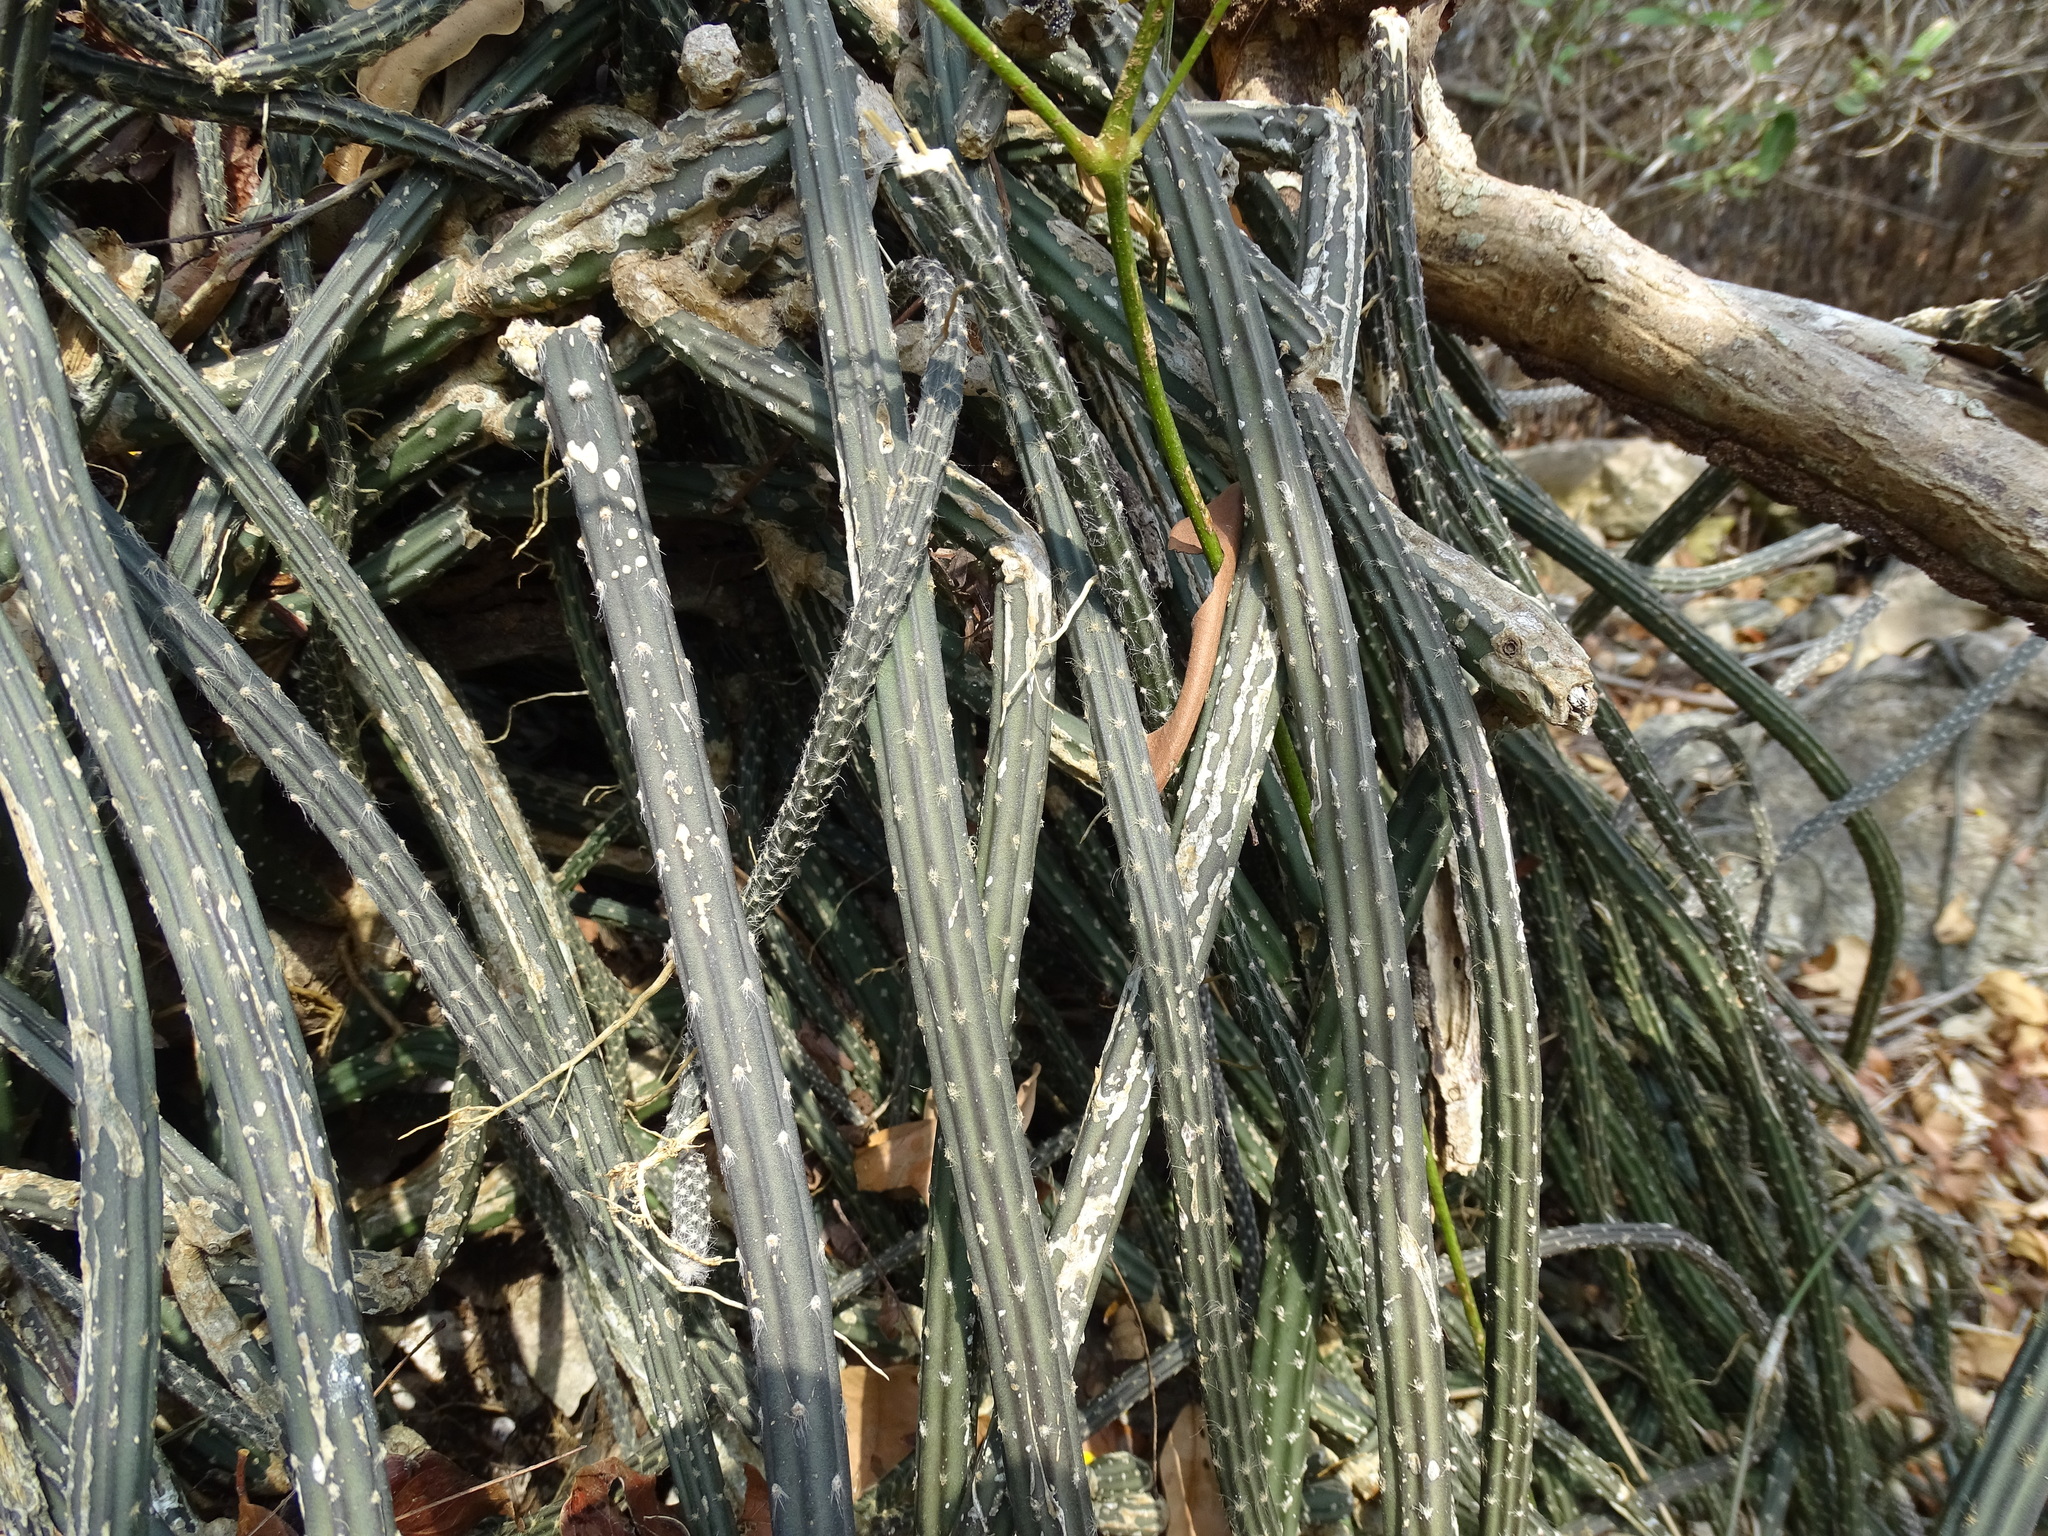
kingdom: Plantae
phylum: Tracheophyta
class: Magnoliopsida
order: Caryophyllales
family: Cactaceae
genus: Selenicereus
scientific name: Selenicereus grandiflorus
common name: Queen of the night
